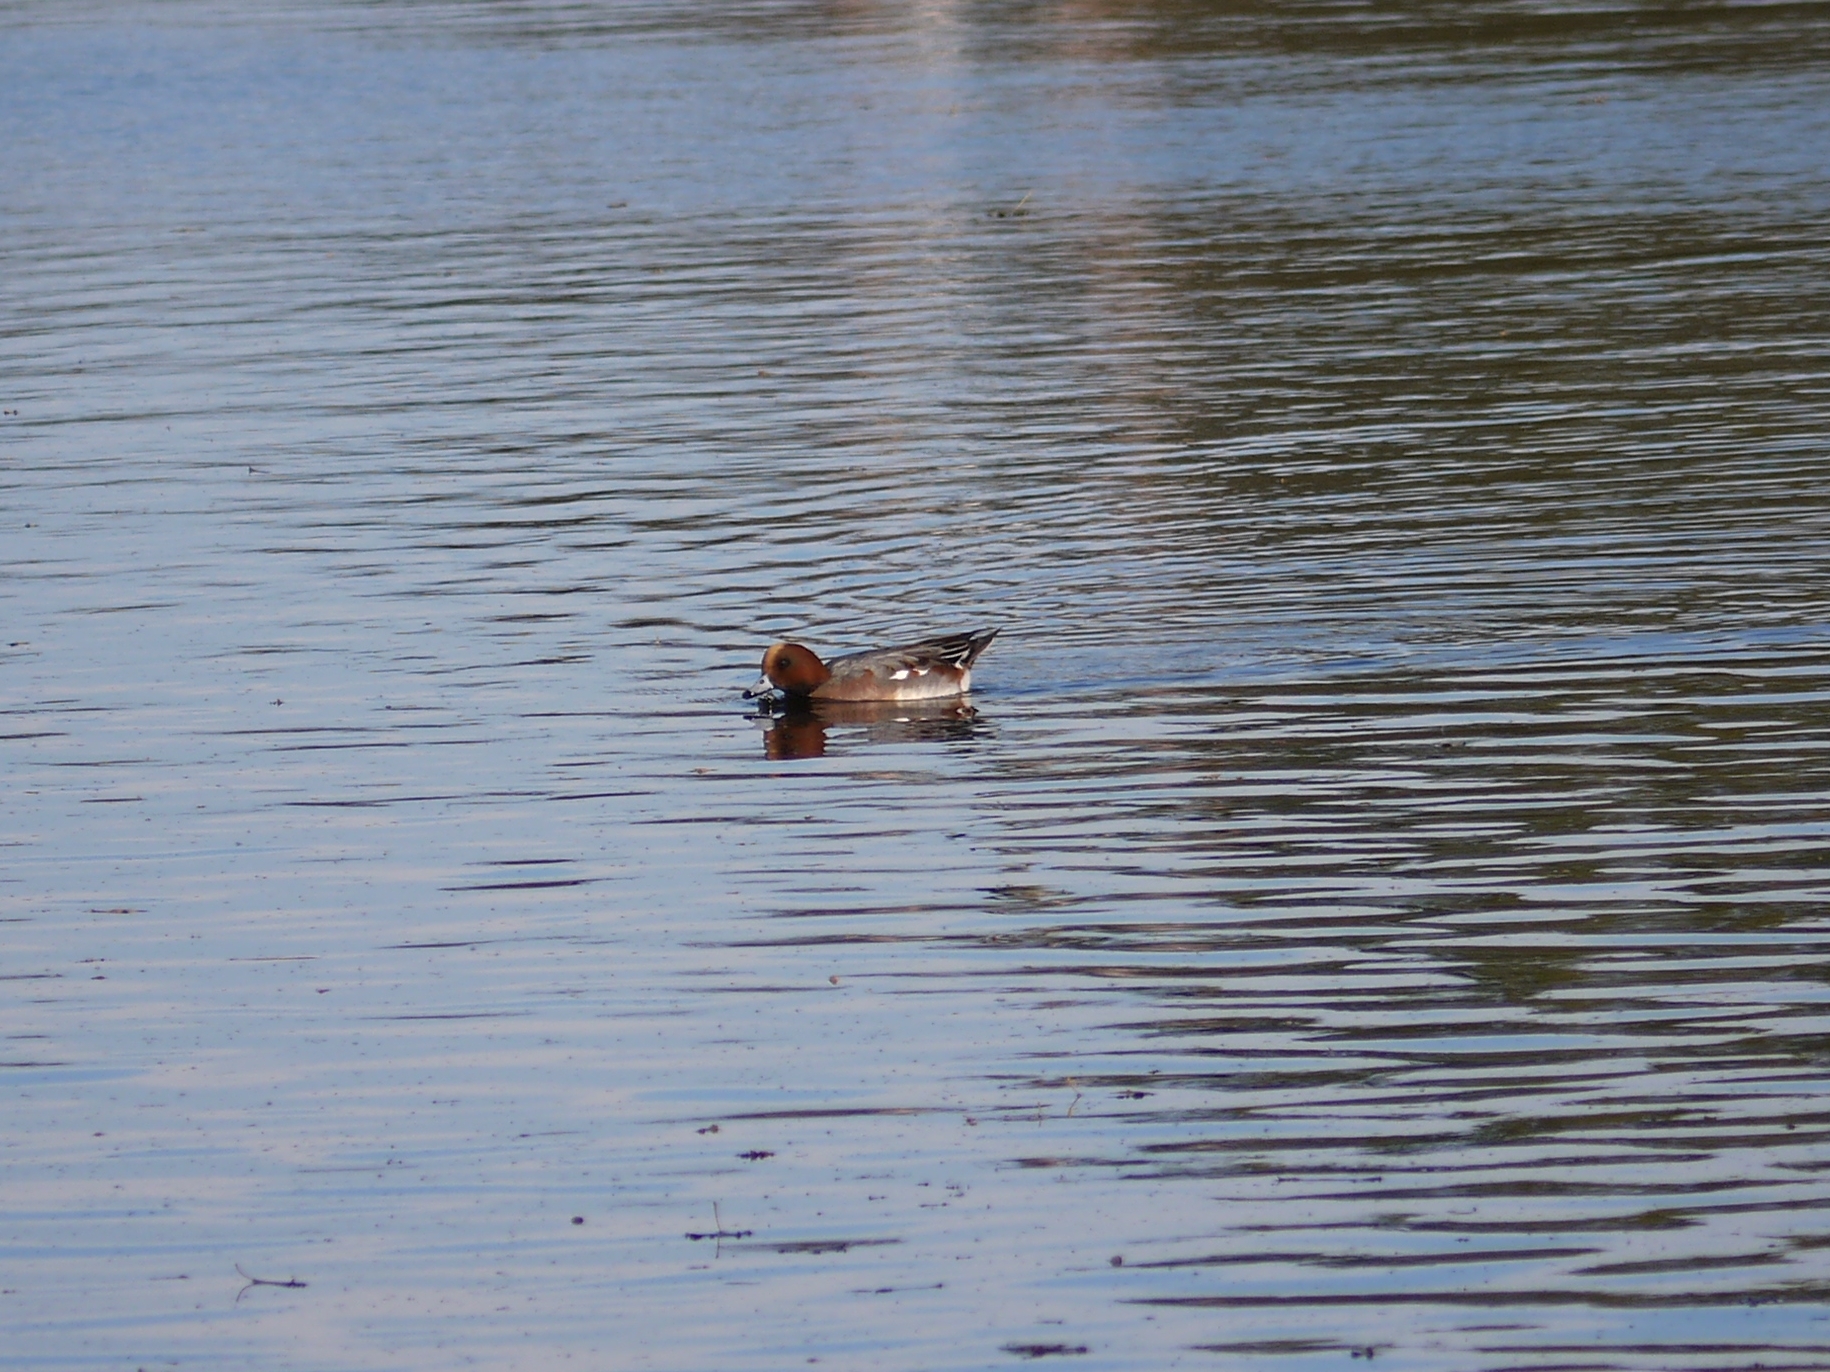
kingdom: Animalia
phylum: Chordata
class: Aves
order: Anseriformes
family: Anatidae
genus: Mareca
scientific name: Mareca penelope
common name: Eurasian wigeon
